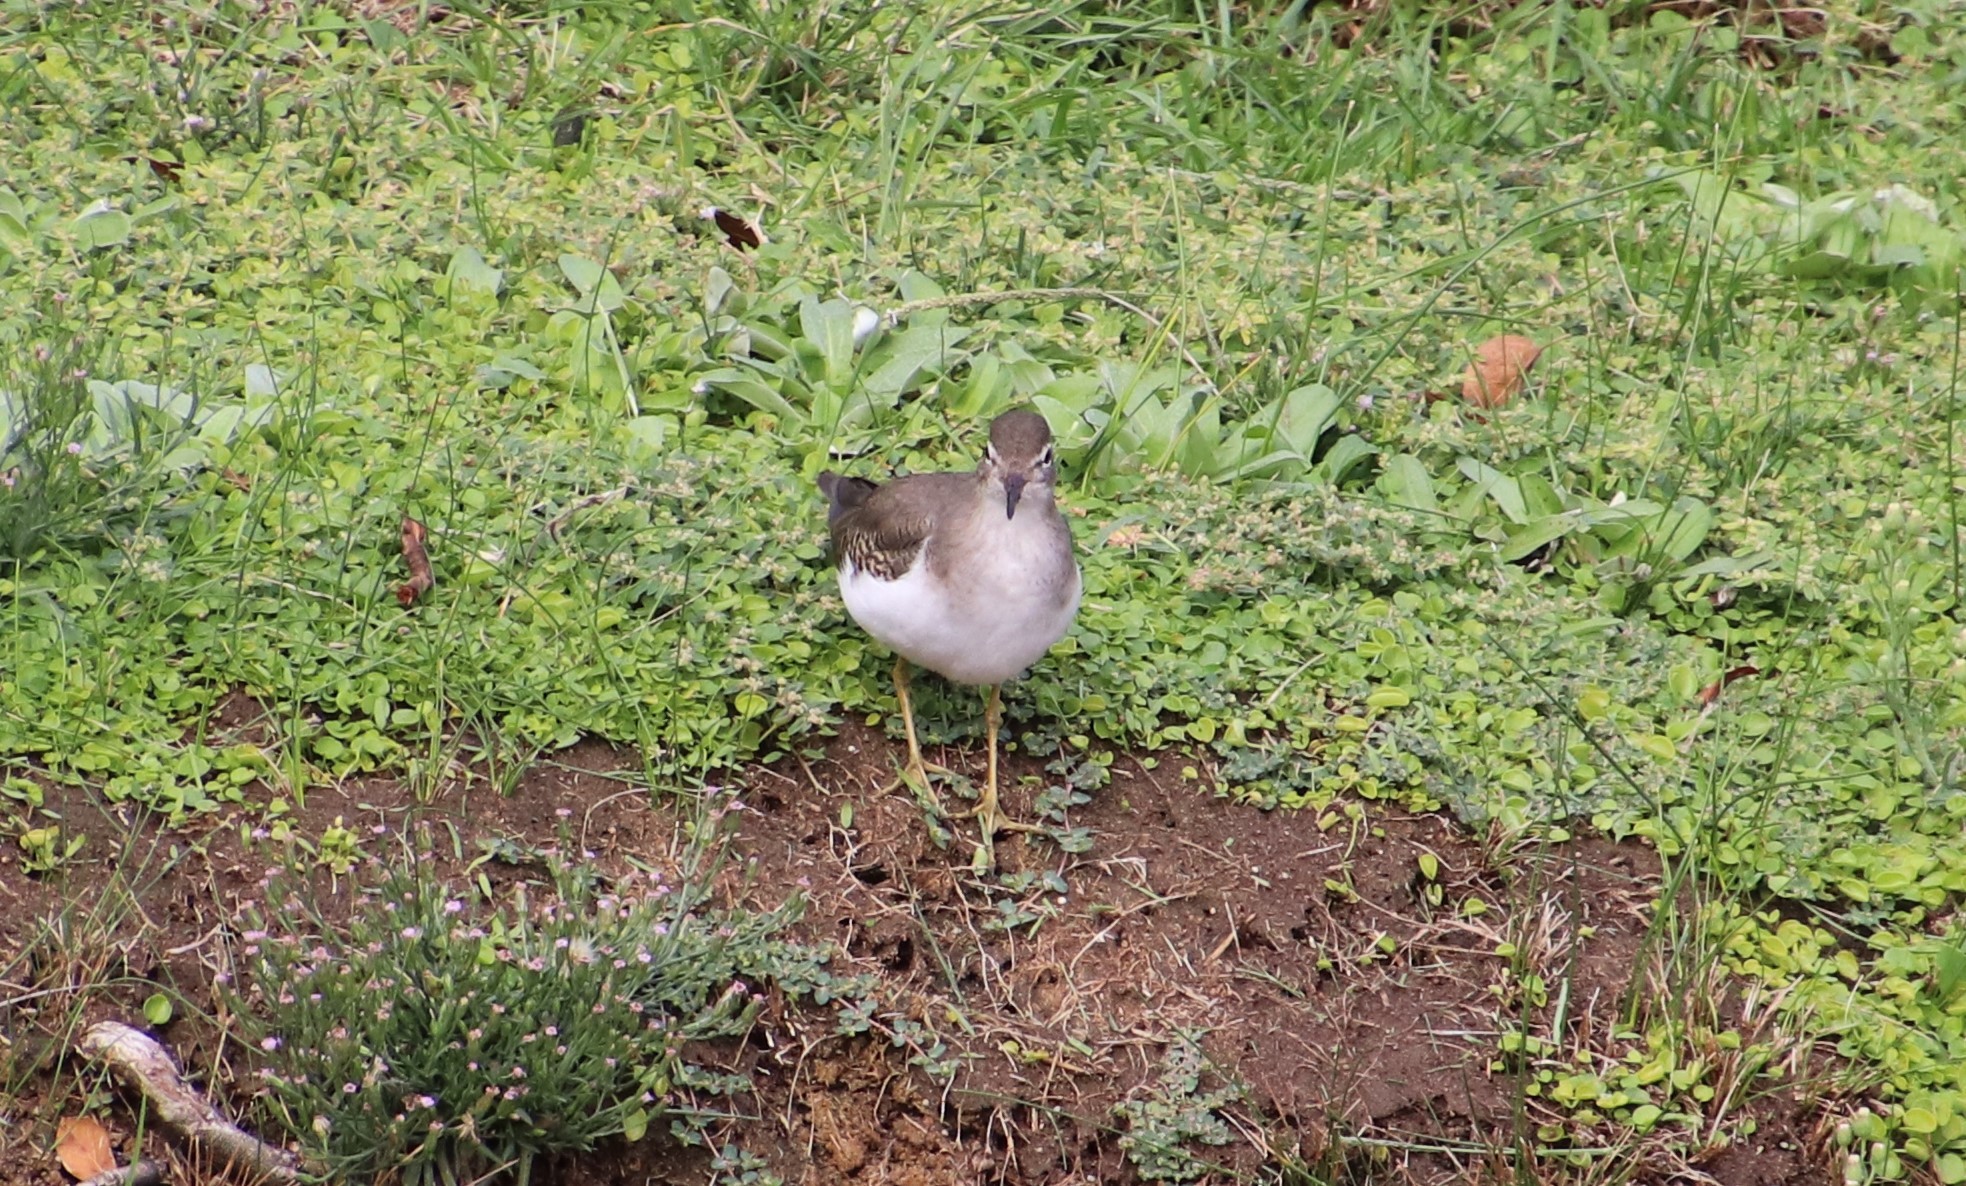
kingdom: Animalia
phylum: Chordata
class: Aves
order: Charadriiformes
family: Scolopacidae
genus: Actitis
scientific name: Actitis macularius
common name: Spotted sandpiper
